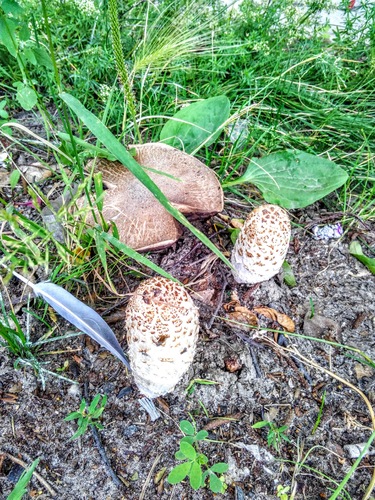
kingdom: Fungi
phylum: Basidiomycota
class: Agaricomycetes
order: Agaricales
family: Agaricaceae
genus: Coprinus
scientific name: Coprinus comatus
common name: Lawyer's wig
